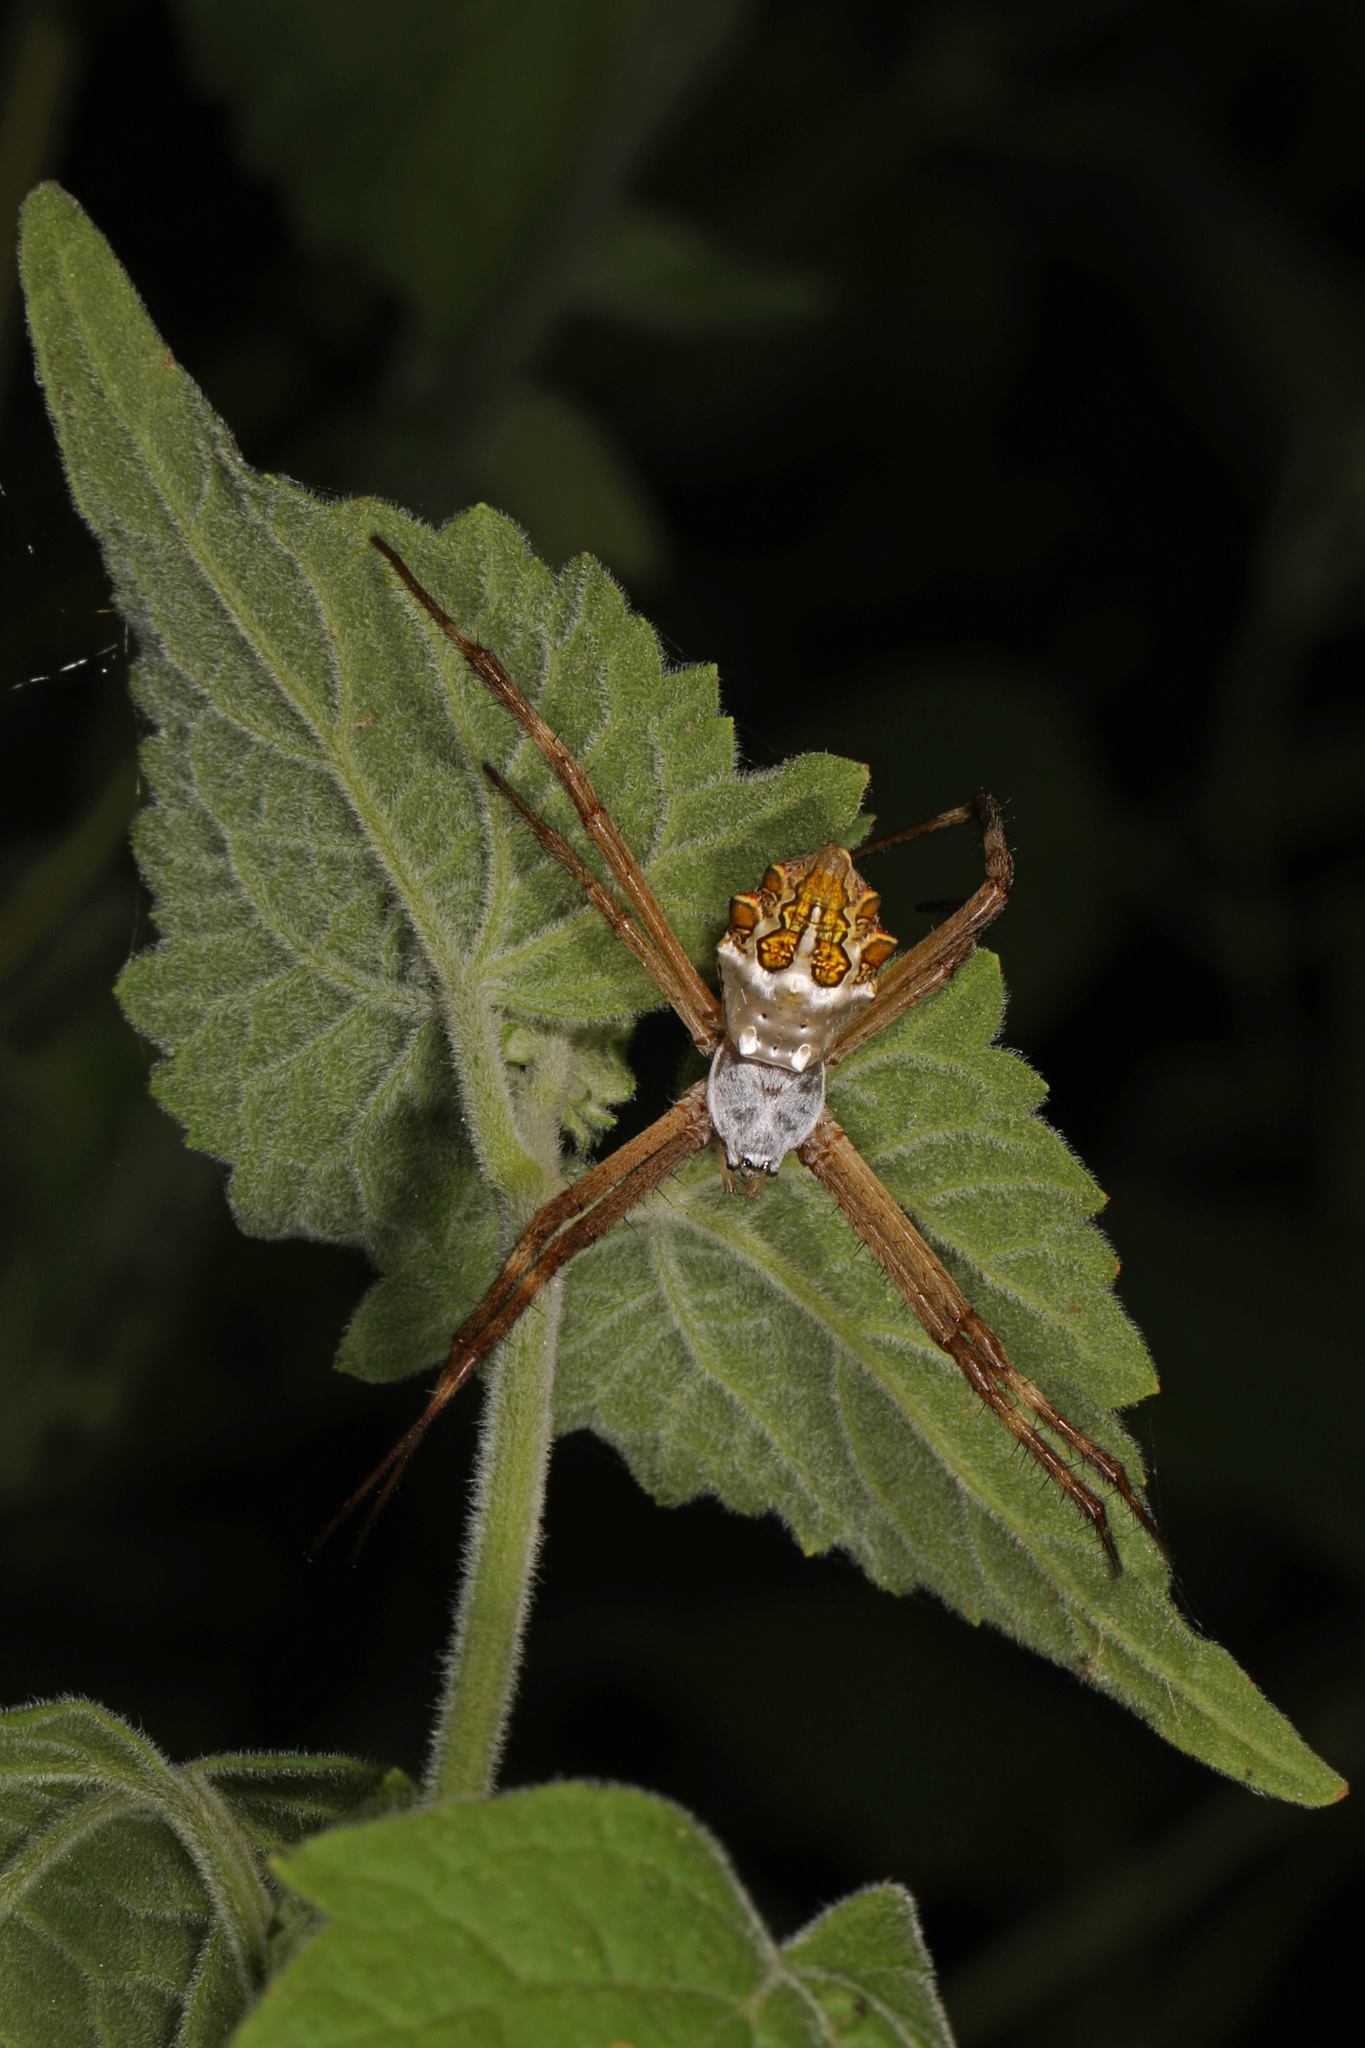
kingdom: Animalia
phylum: Arthropoda
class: Arachnida
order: Araneae
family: Araneidae
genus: Argiope
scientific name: Argiope argentata
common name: Orb weavers
